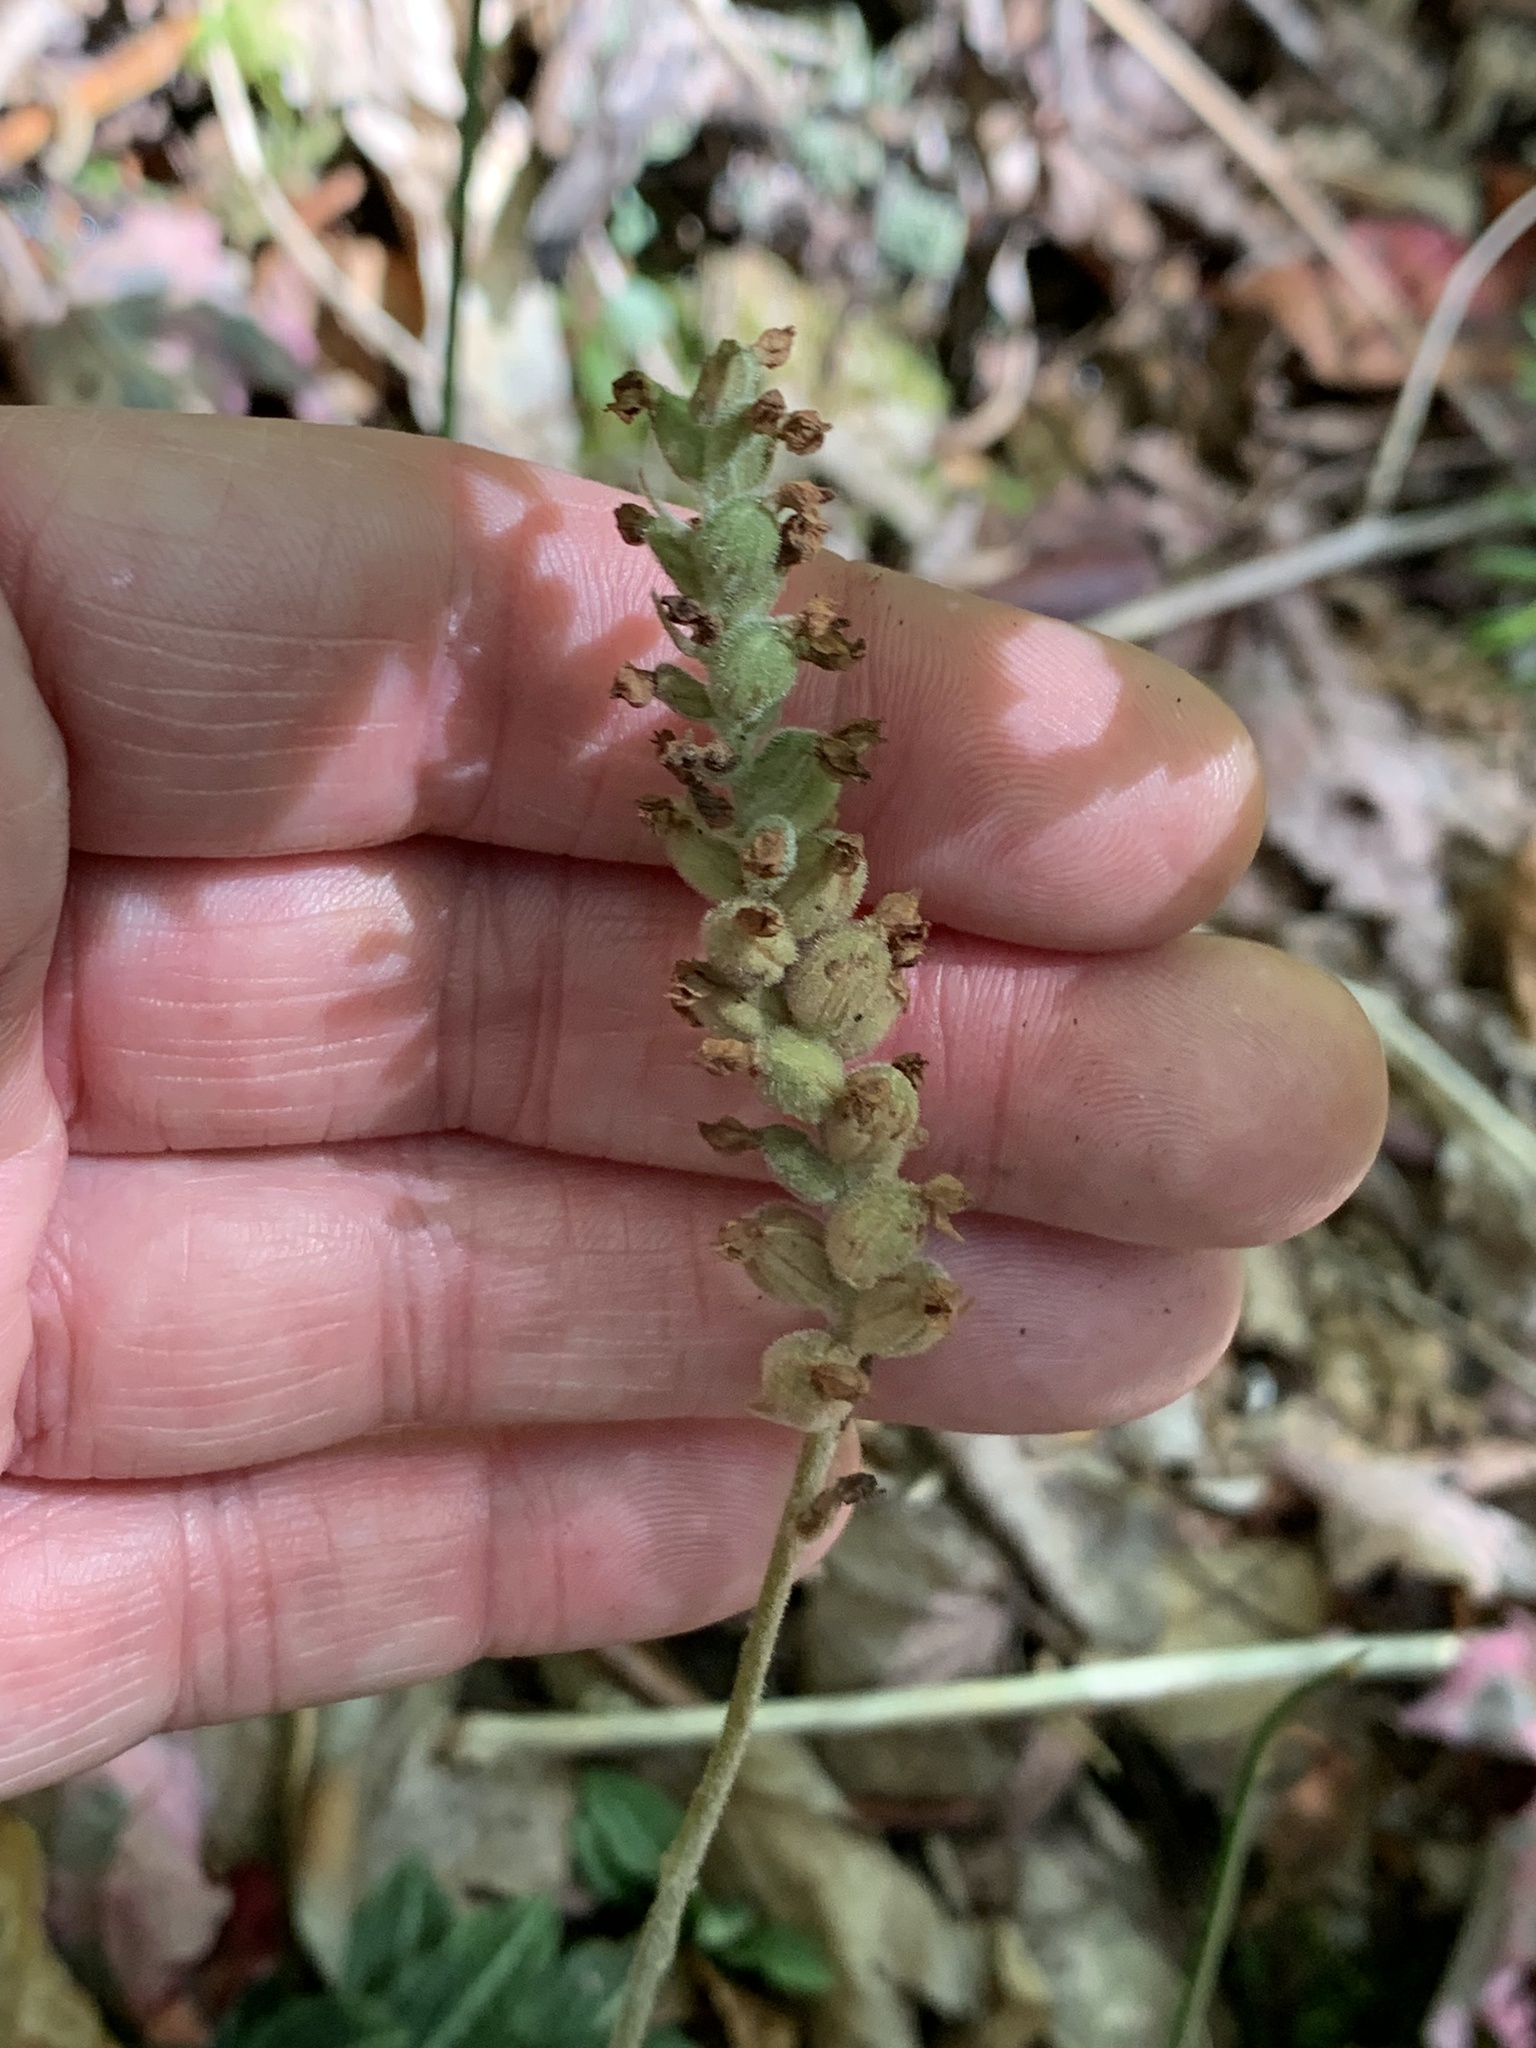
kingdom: Plantae
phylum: Tracheophyta
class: Liliopsida
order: Asparagales
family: Orchidaceae
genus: Goodyera
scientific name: Goodyera pubescens
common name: Downy rattlesnake-plantain
